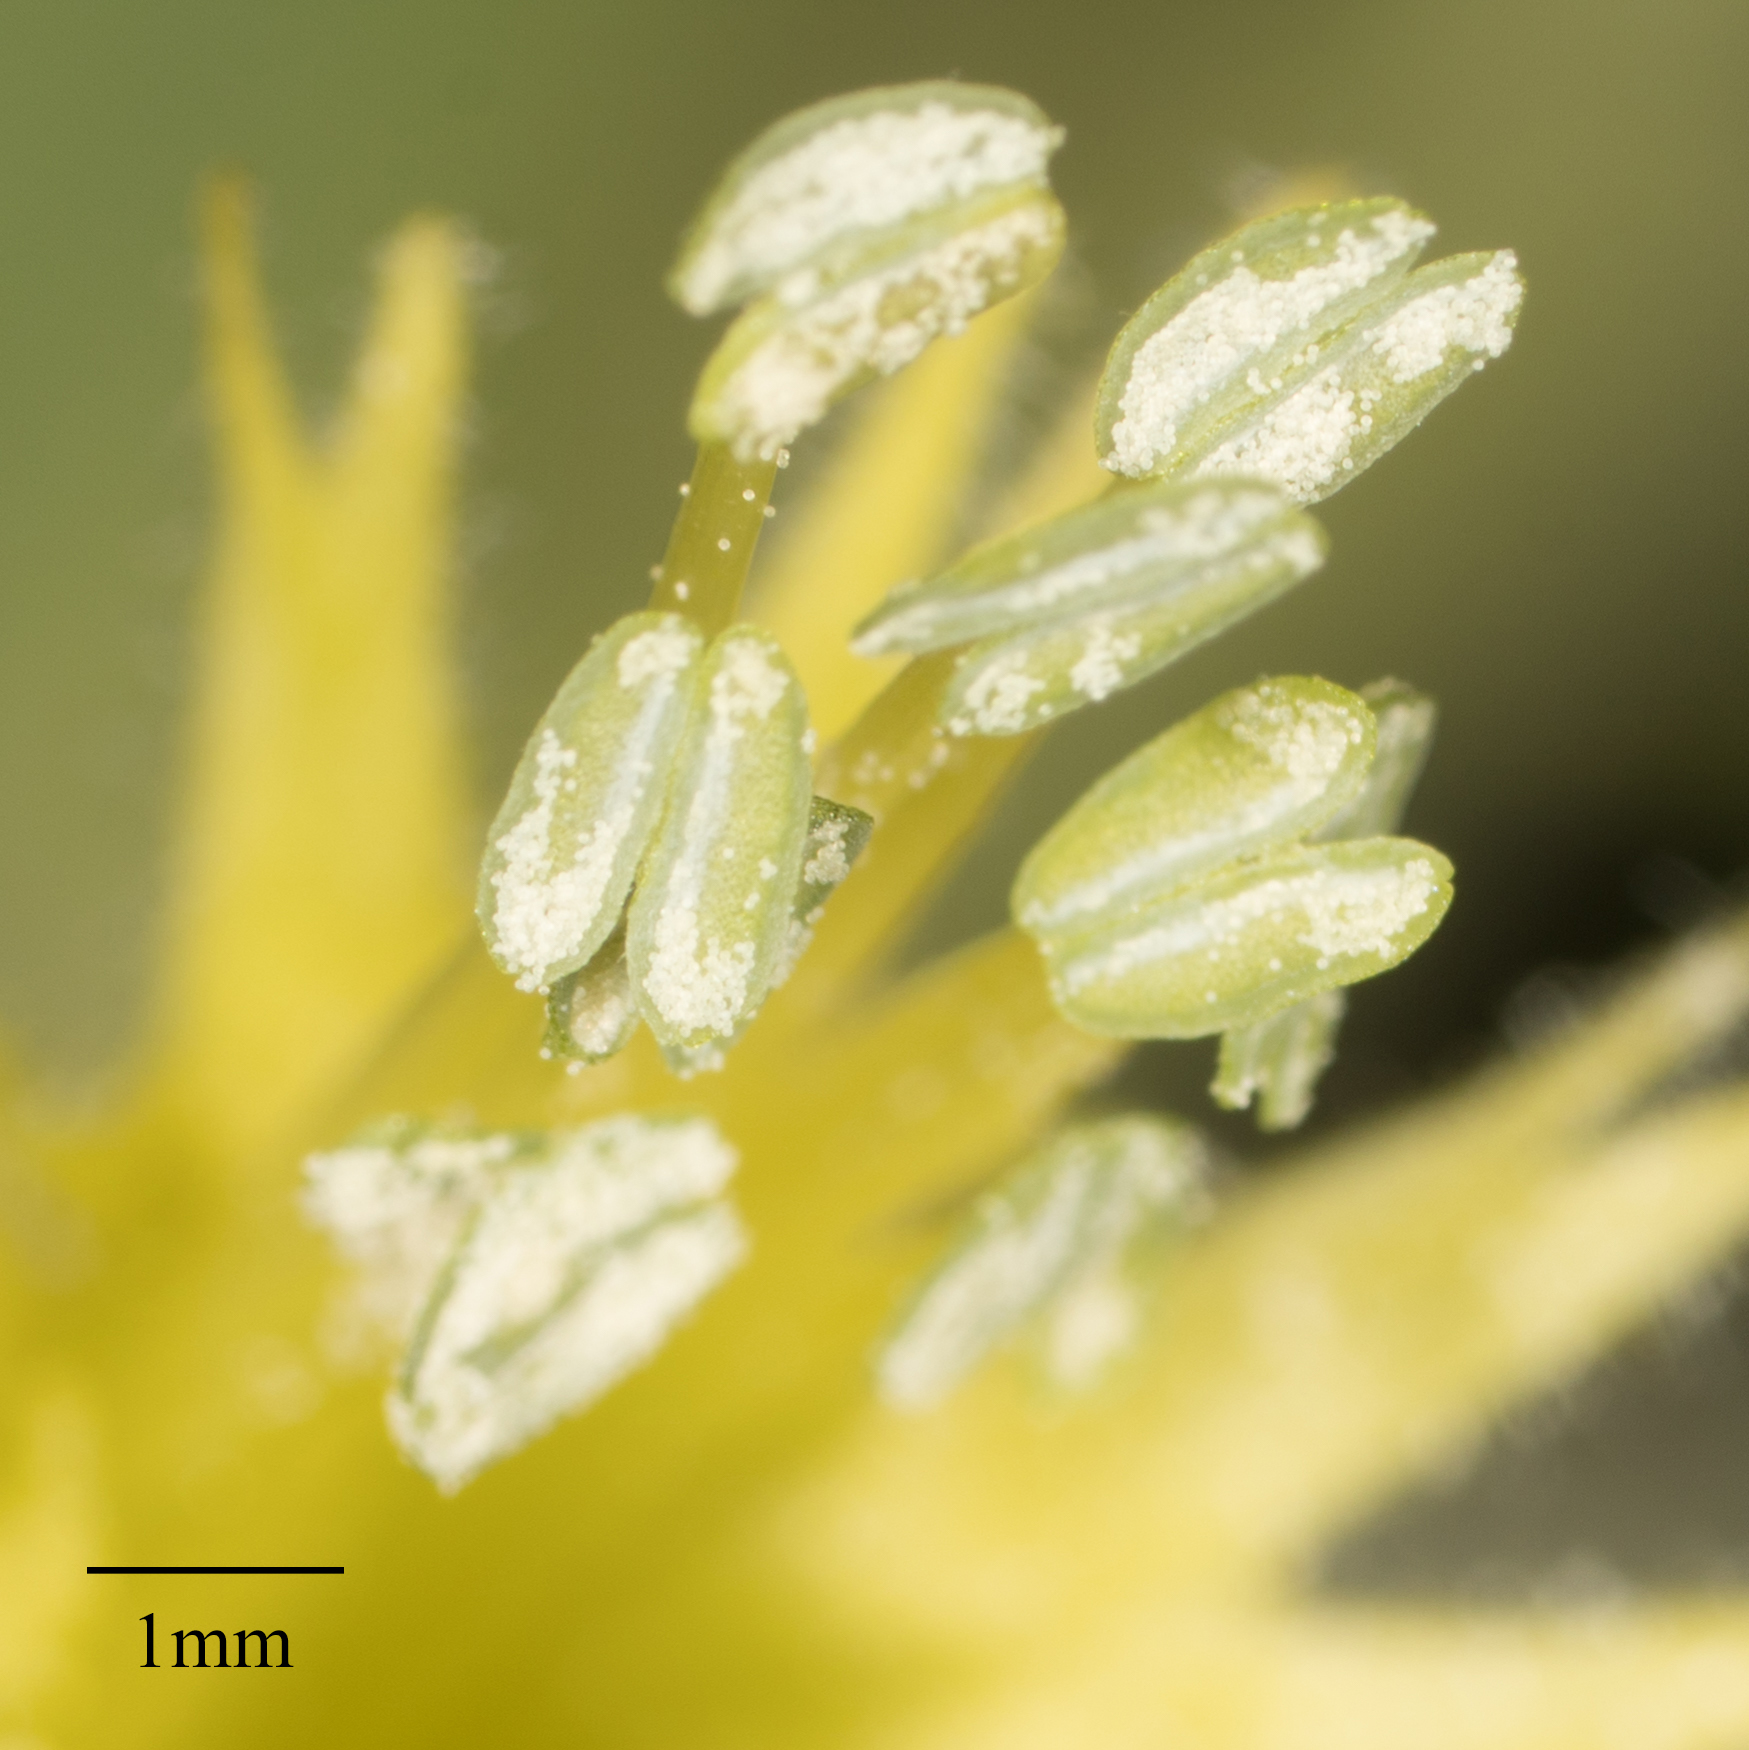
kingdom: Plantae
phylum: Tracheophyta
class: Magnoliopsida
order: Caryophyllales
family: Caryophyllaceae
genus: Silene
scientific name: Silene parishii
